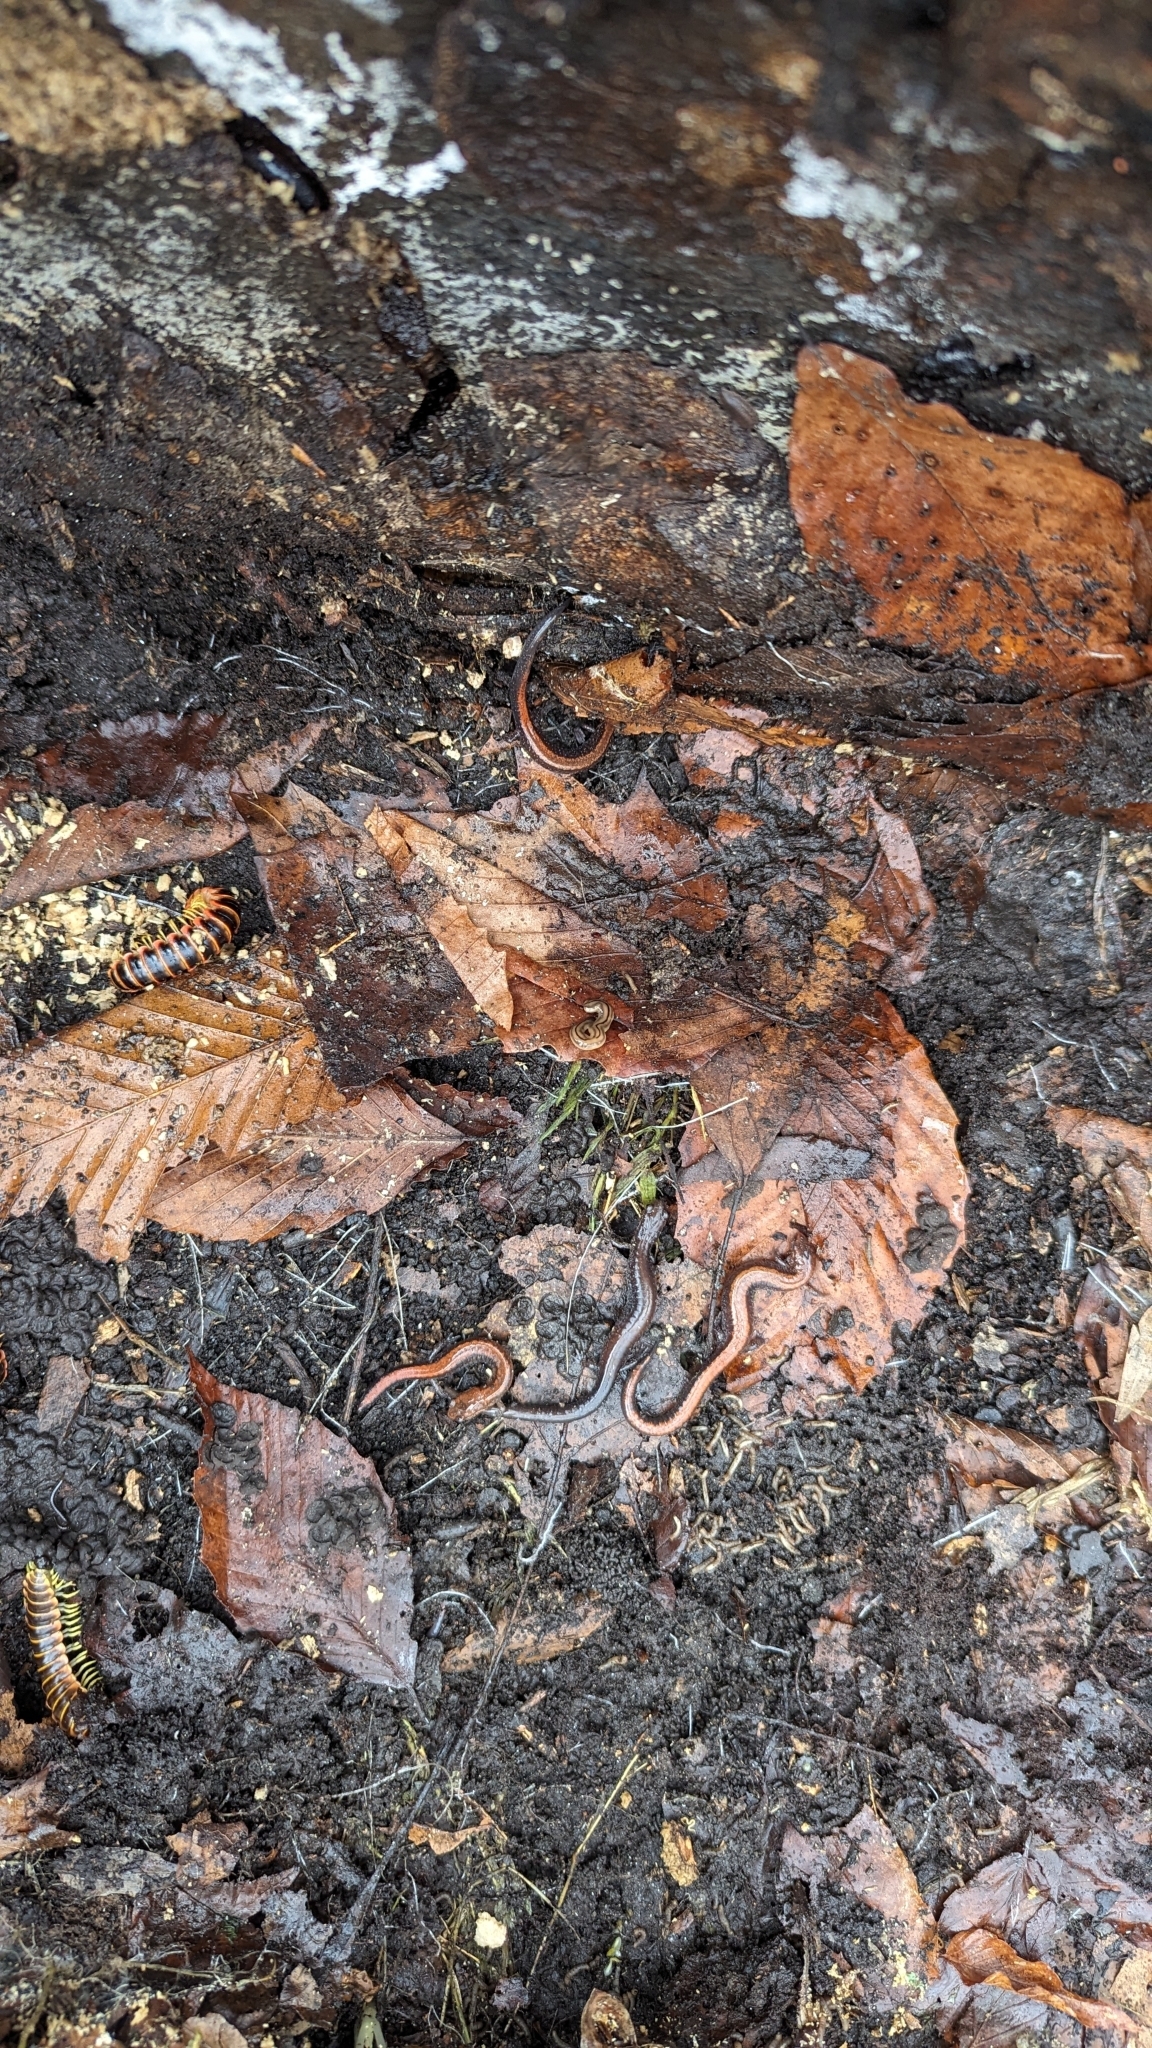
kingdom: Animalia
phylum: Chordata
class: Amphibia
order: Caudata
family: Plethodontidae
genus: Plethodon
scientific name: Plethodon cinereus
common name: Redback salamander
